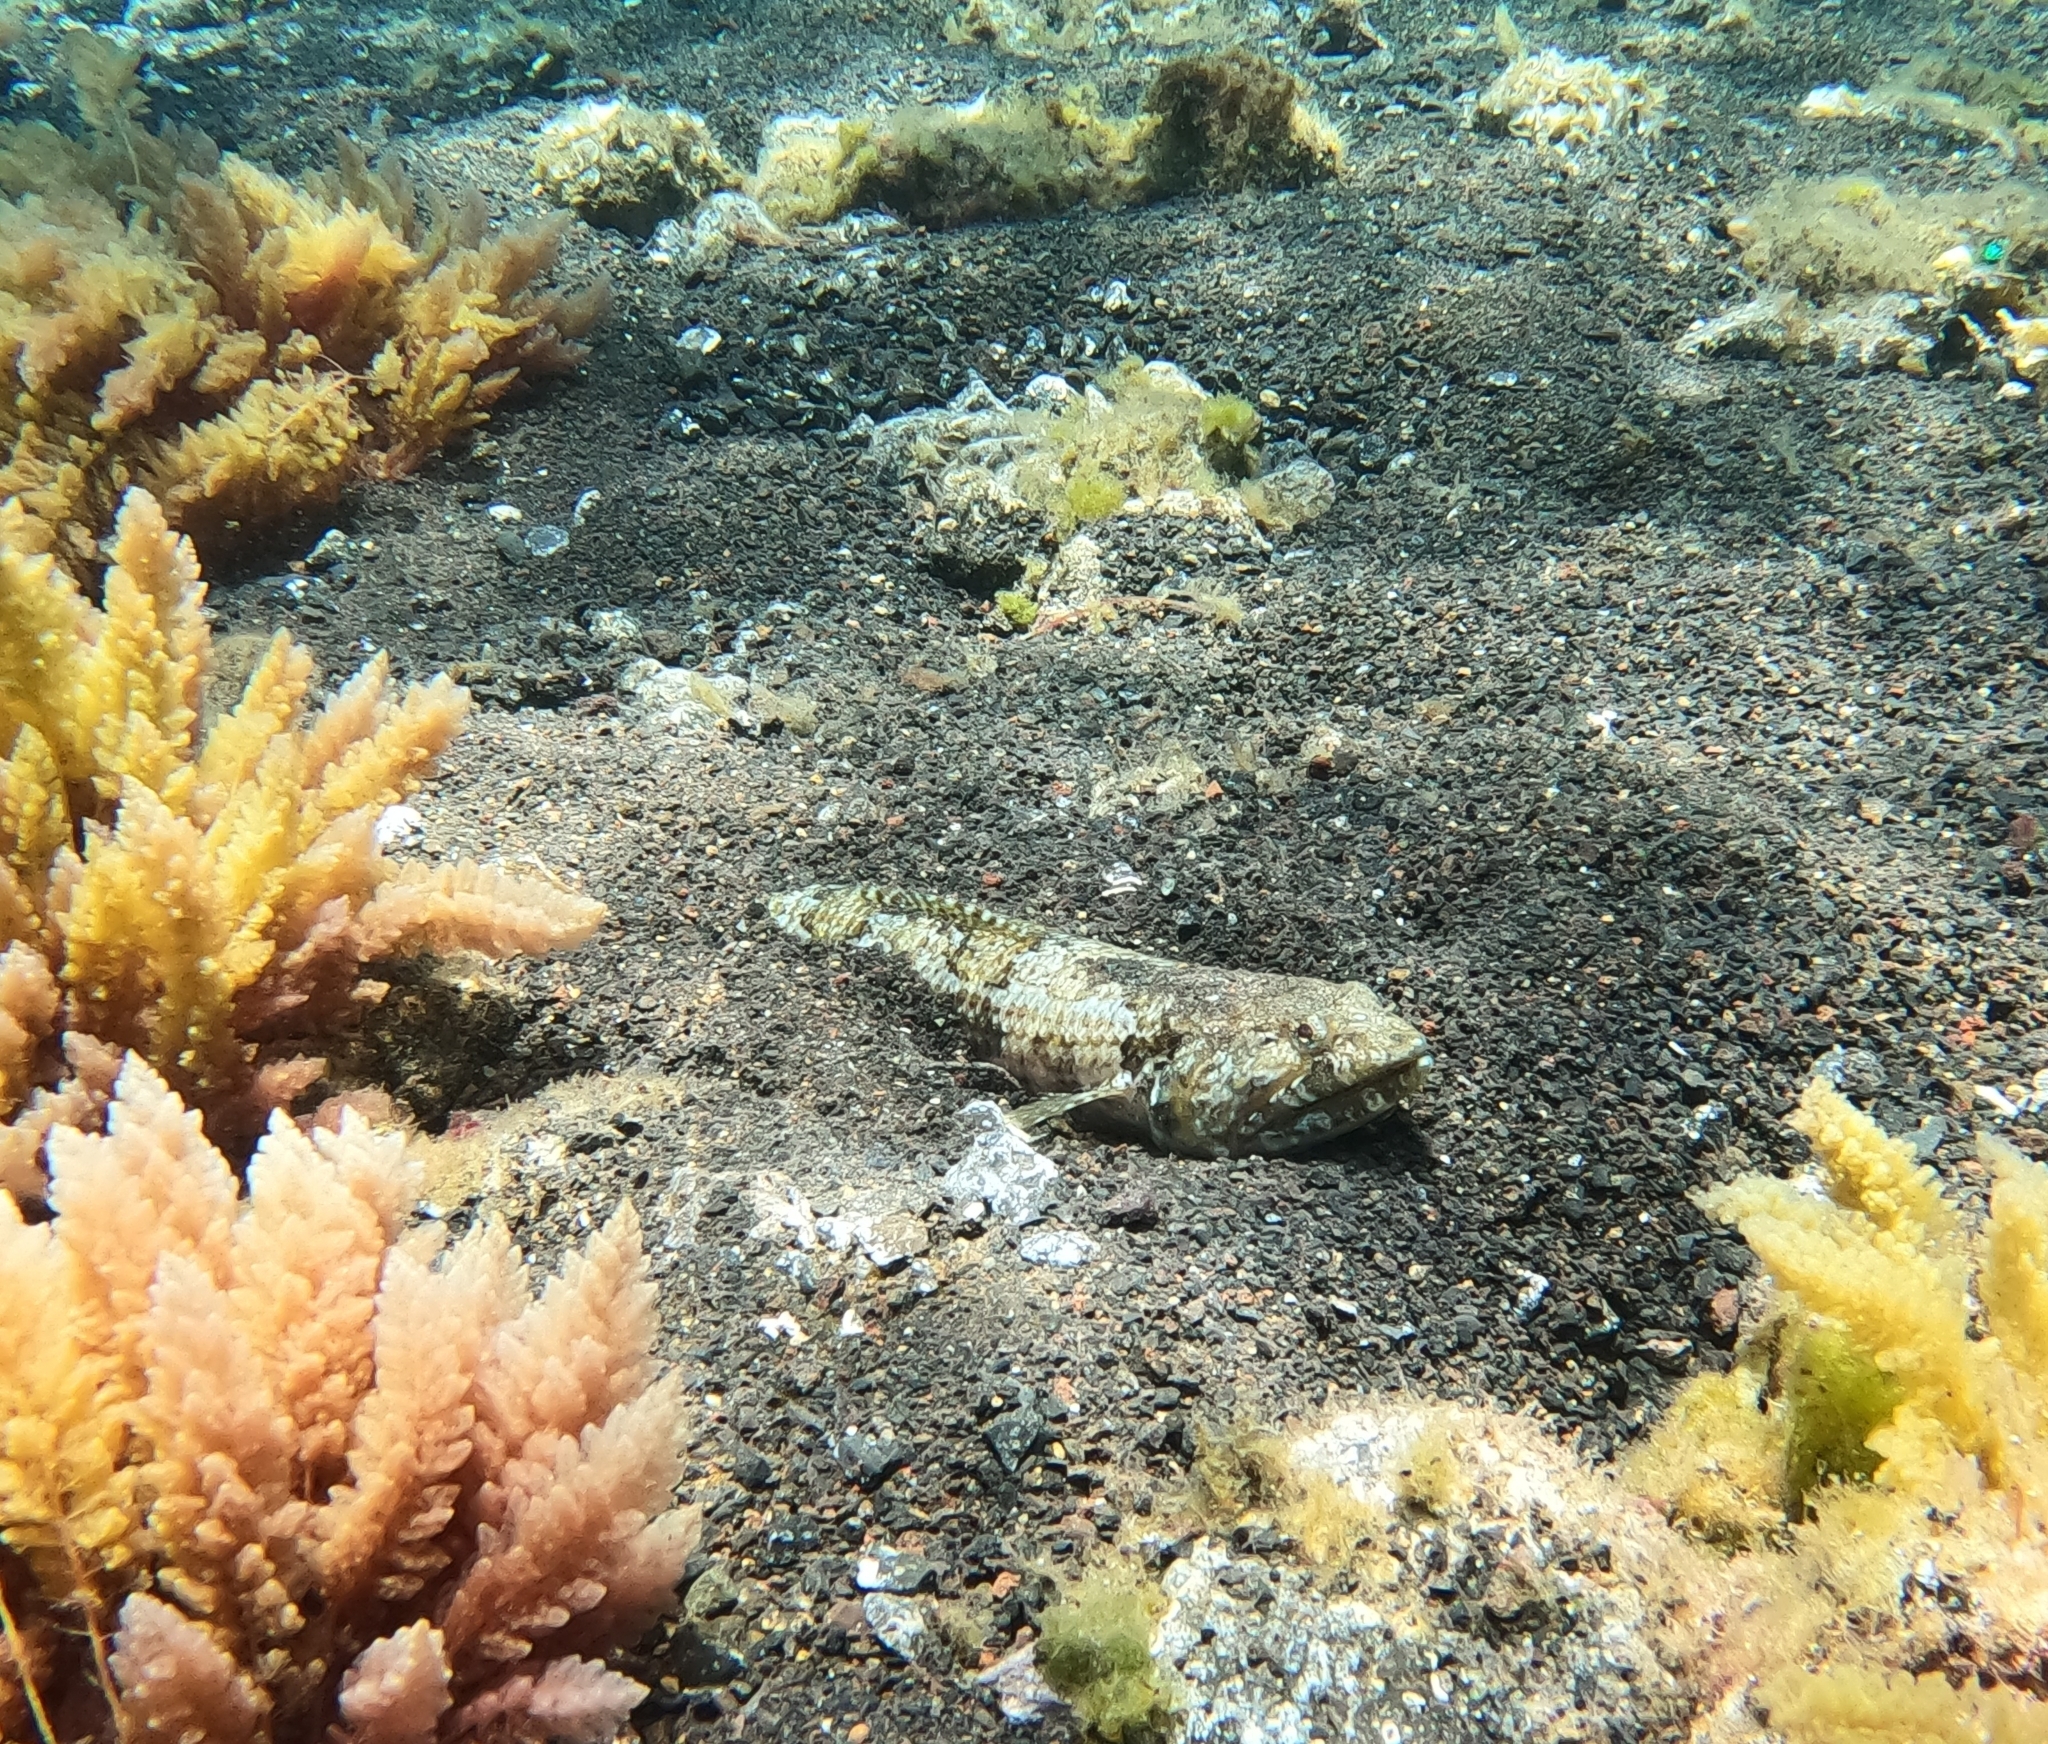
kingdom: Animalia
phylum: Chordata
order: Aulopiformes
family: Synodontidae
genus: Synodus
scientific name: Synodus synodus
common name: Red lizardfish
